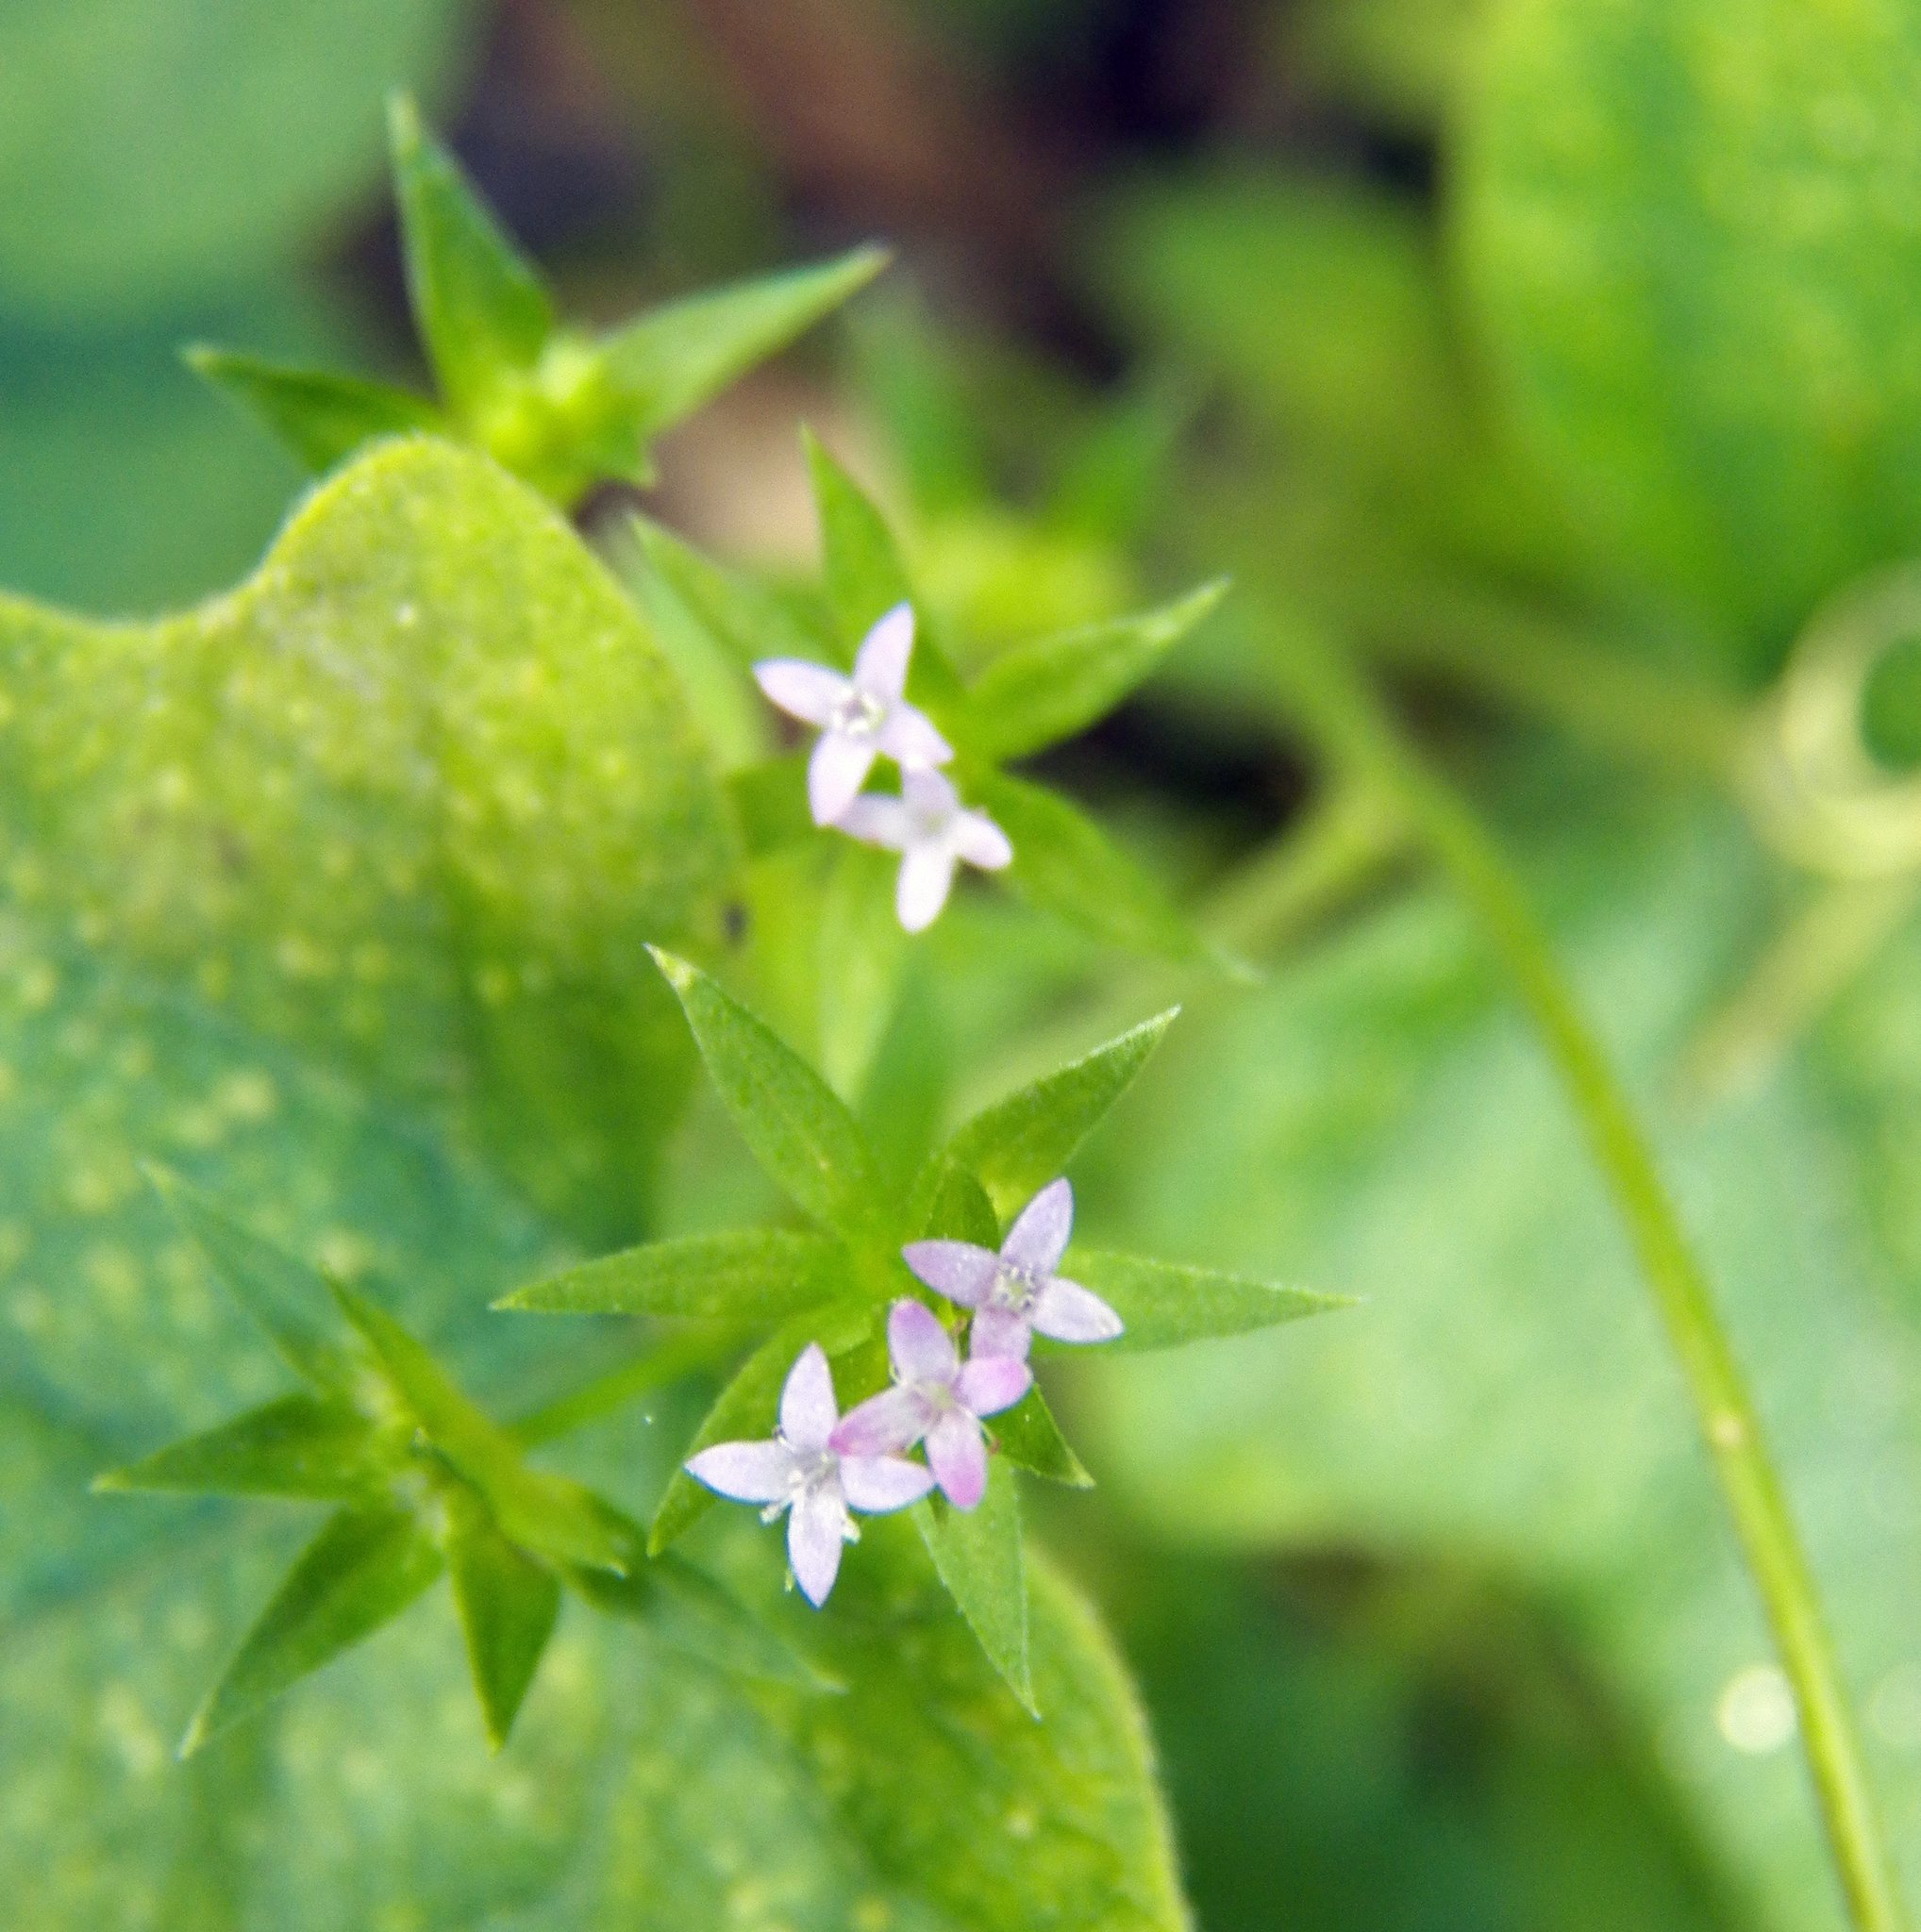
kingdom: Plantae
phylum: Tracheophyta
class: Magnoliopsida
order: Gentianales
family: Rubiaceae
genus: Sherardia
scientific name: Sherardia arvensis
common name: Field madder
